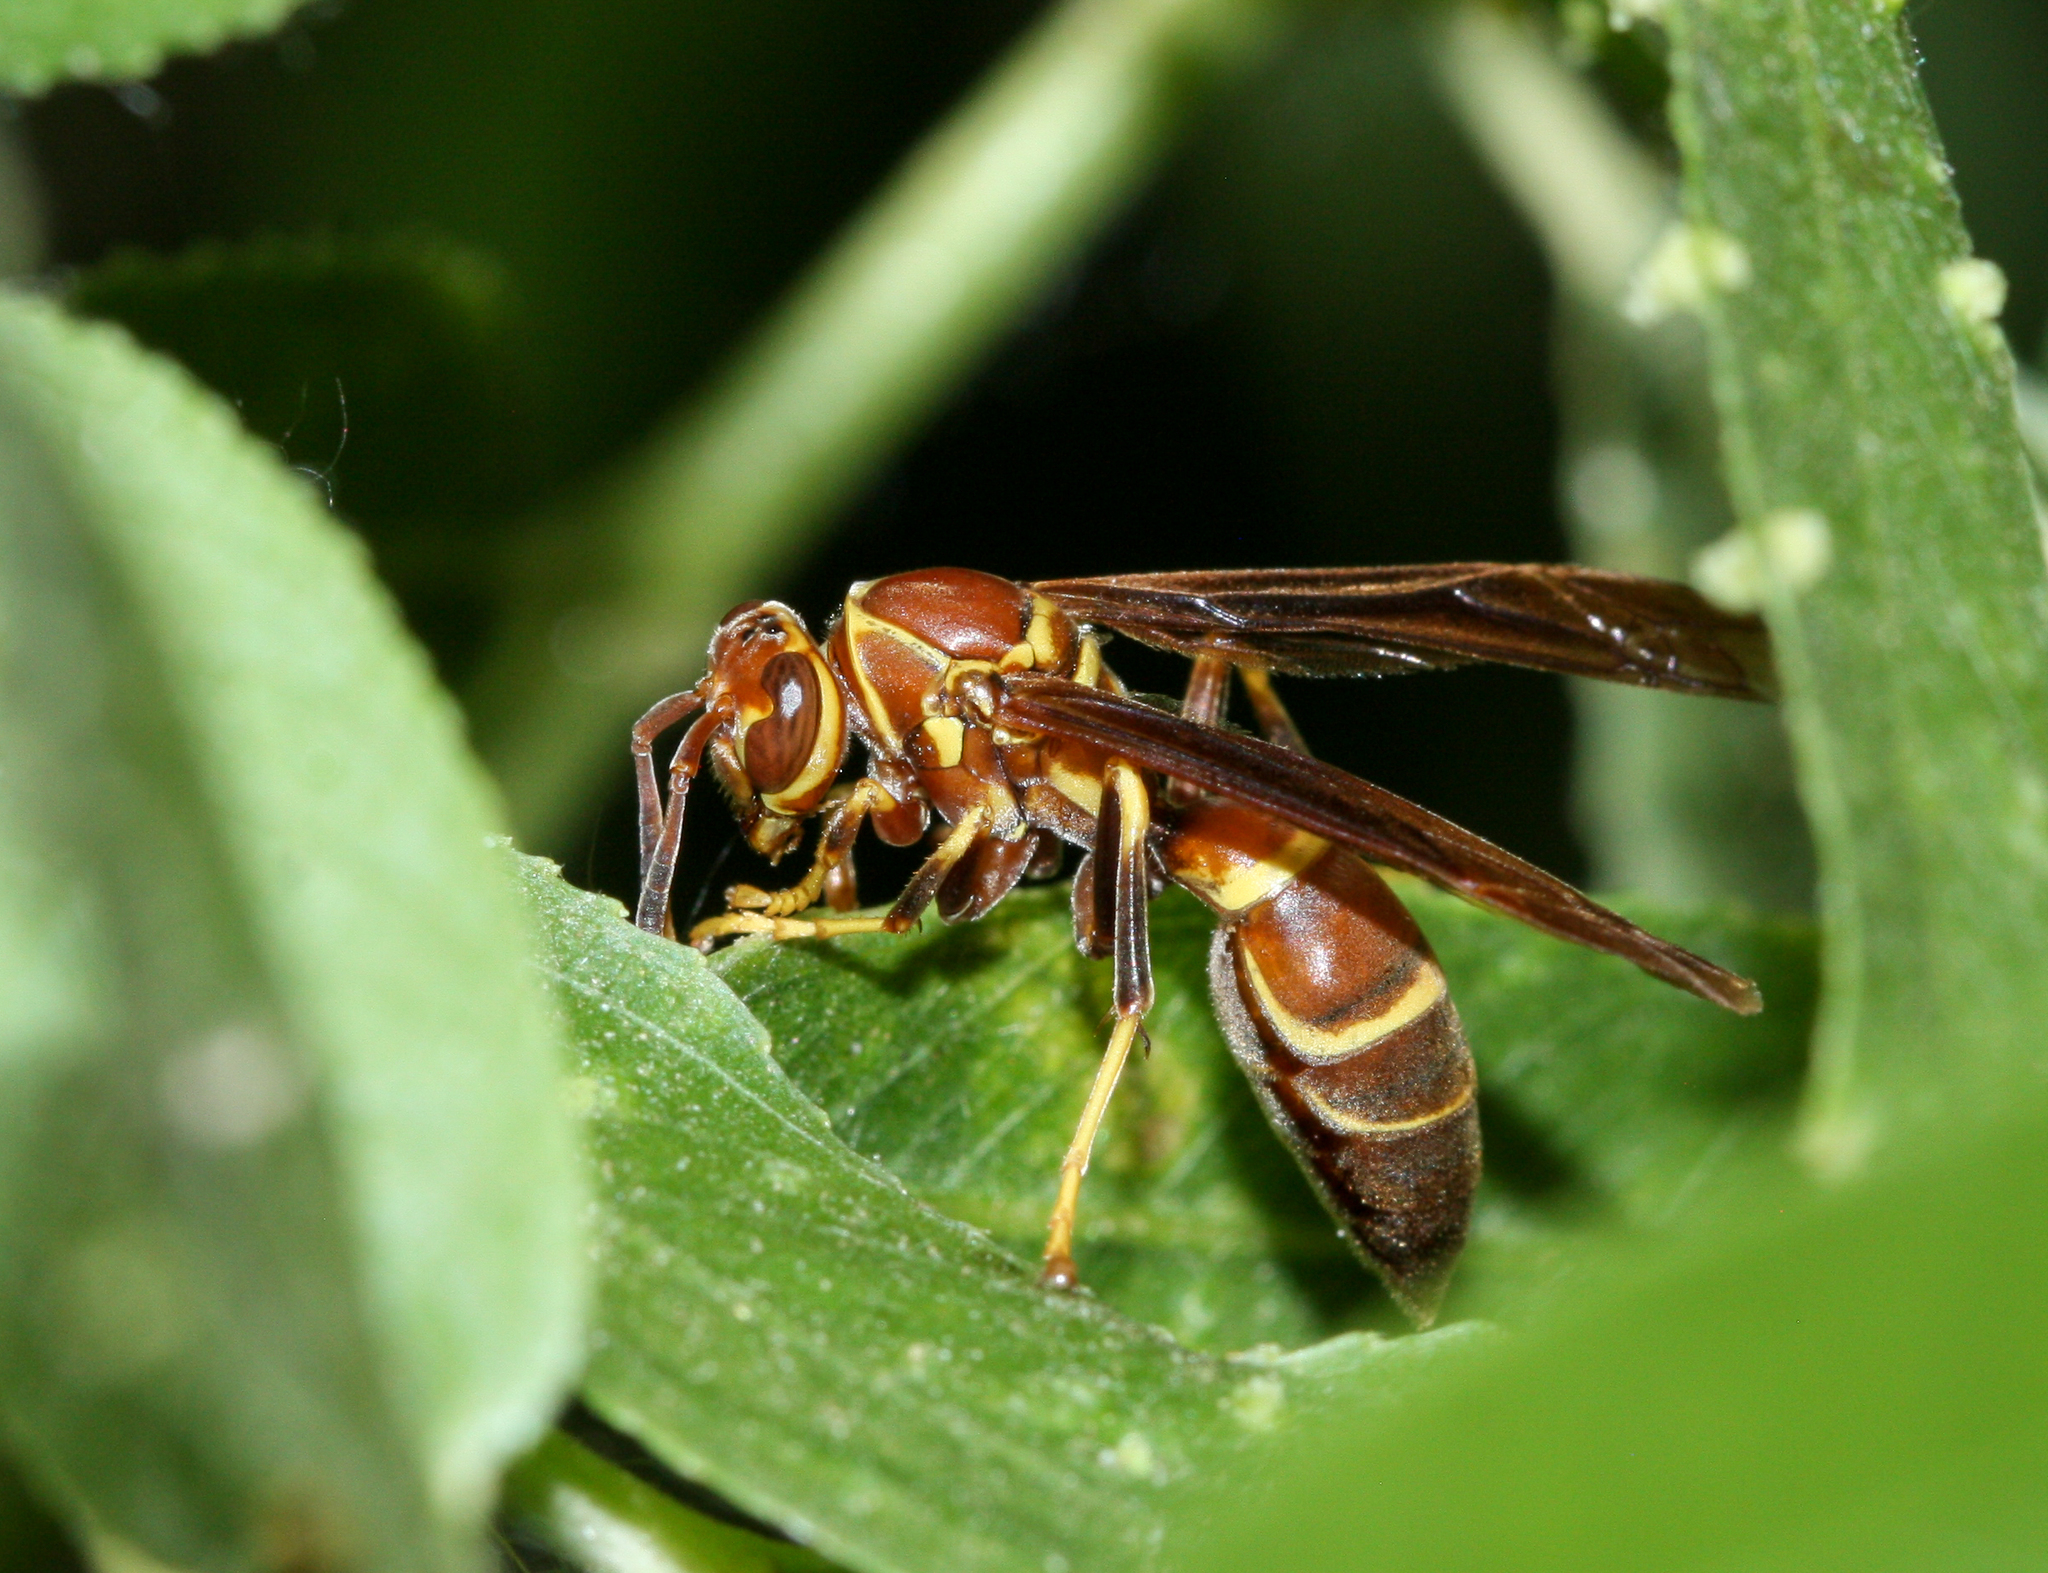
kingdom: Animalia
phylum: Arthropoda
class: Insecta
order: Hymenoptera
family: Eumenidae
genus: Polistes
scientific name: Polistes arizonensis
